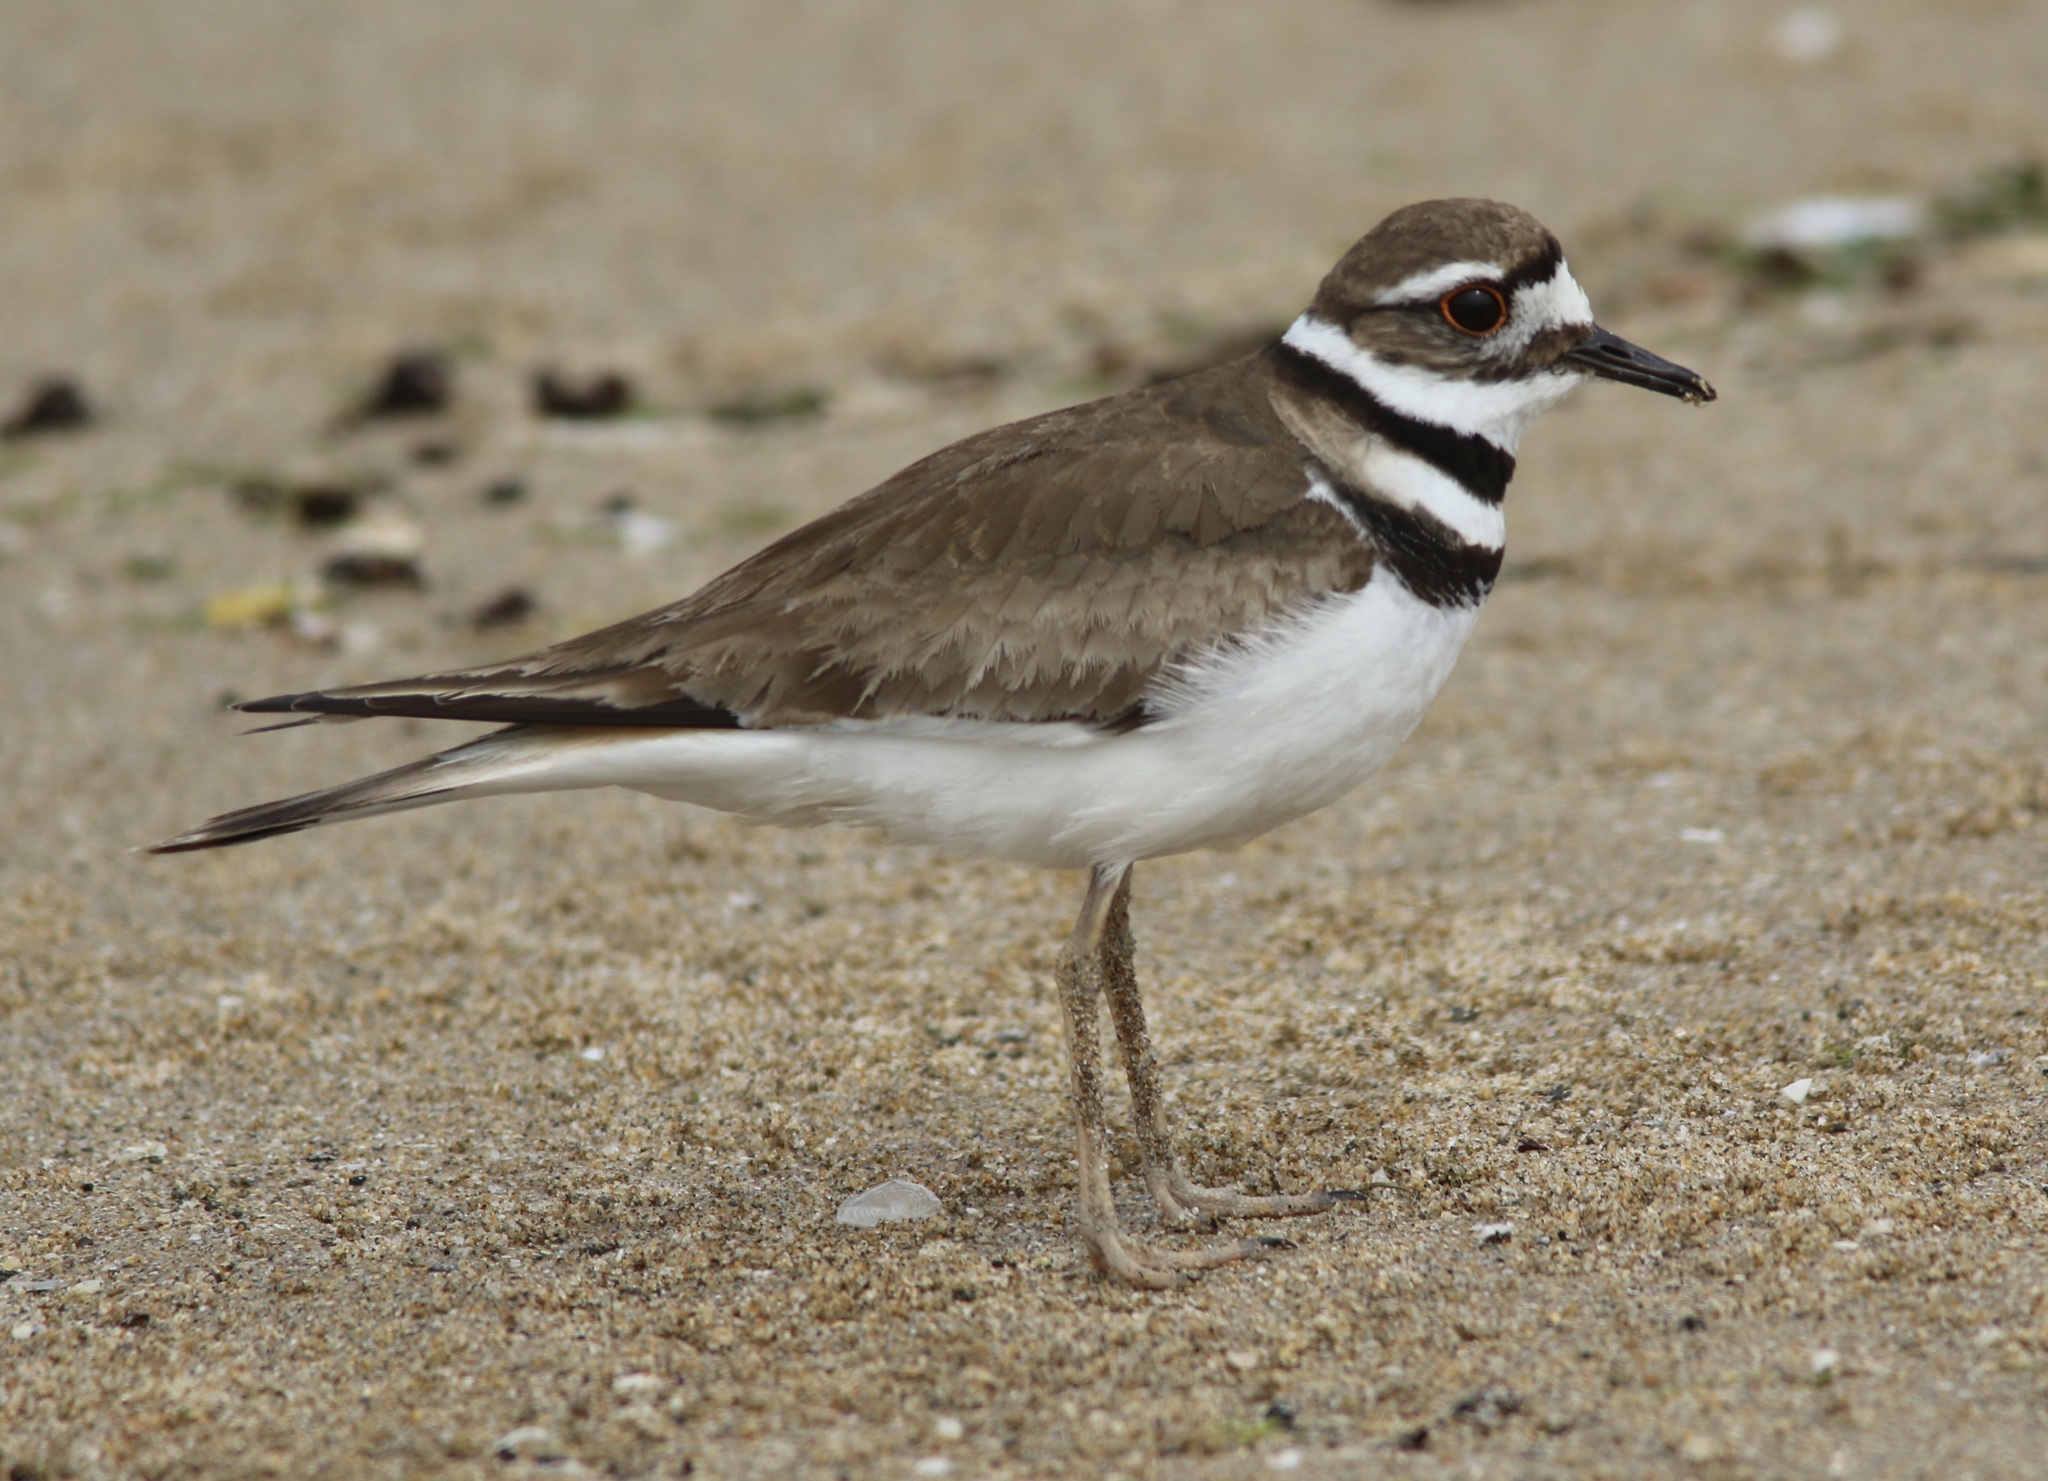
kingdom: Animalia
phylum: Chordata
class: Aves
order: Charadriiformes
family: Charadriidae
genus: Charadrius
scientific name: Charadrius vociferus
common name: Killdeer
